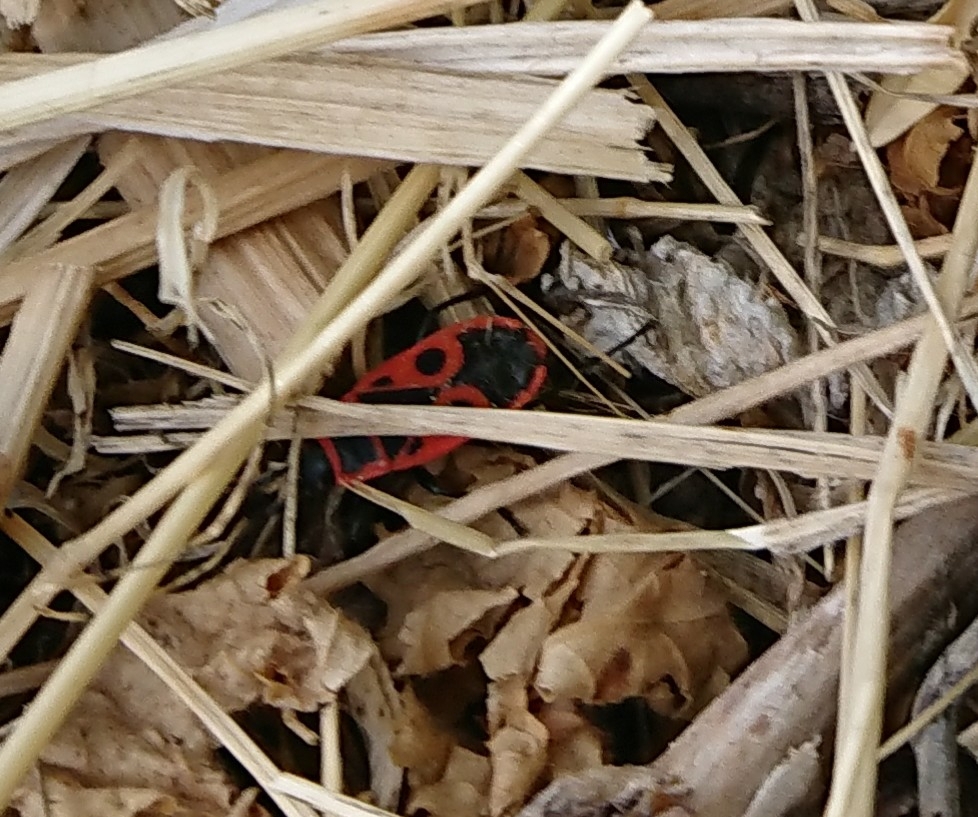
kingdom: Animalia
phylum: Arthropoda
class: Insecta
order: Hemiptera
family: Pyrrhocoridae
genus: Pyrrhocoris
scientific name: Pyrrhocoris apterus
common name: Firebug
